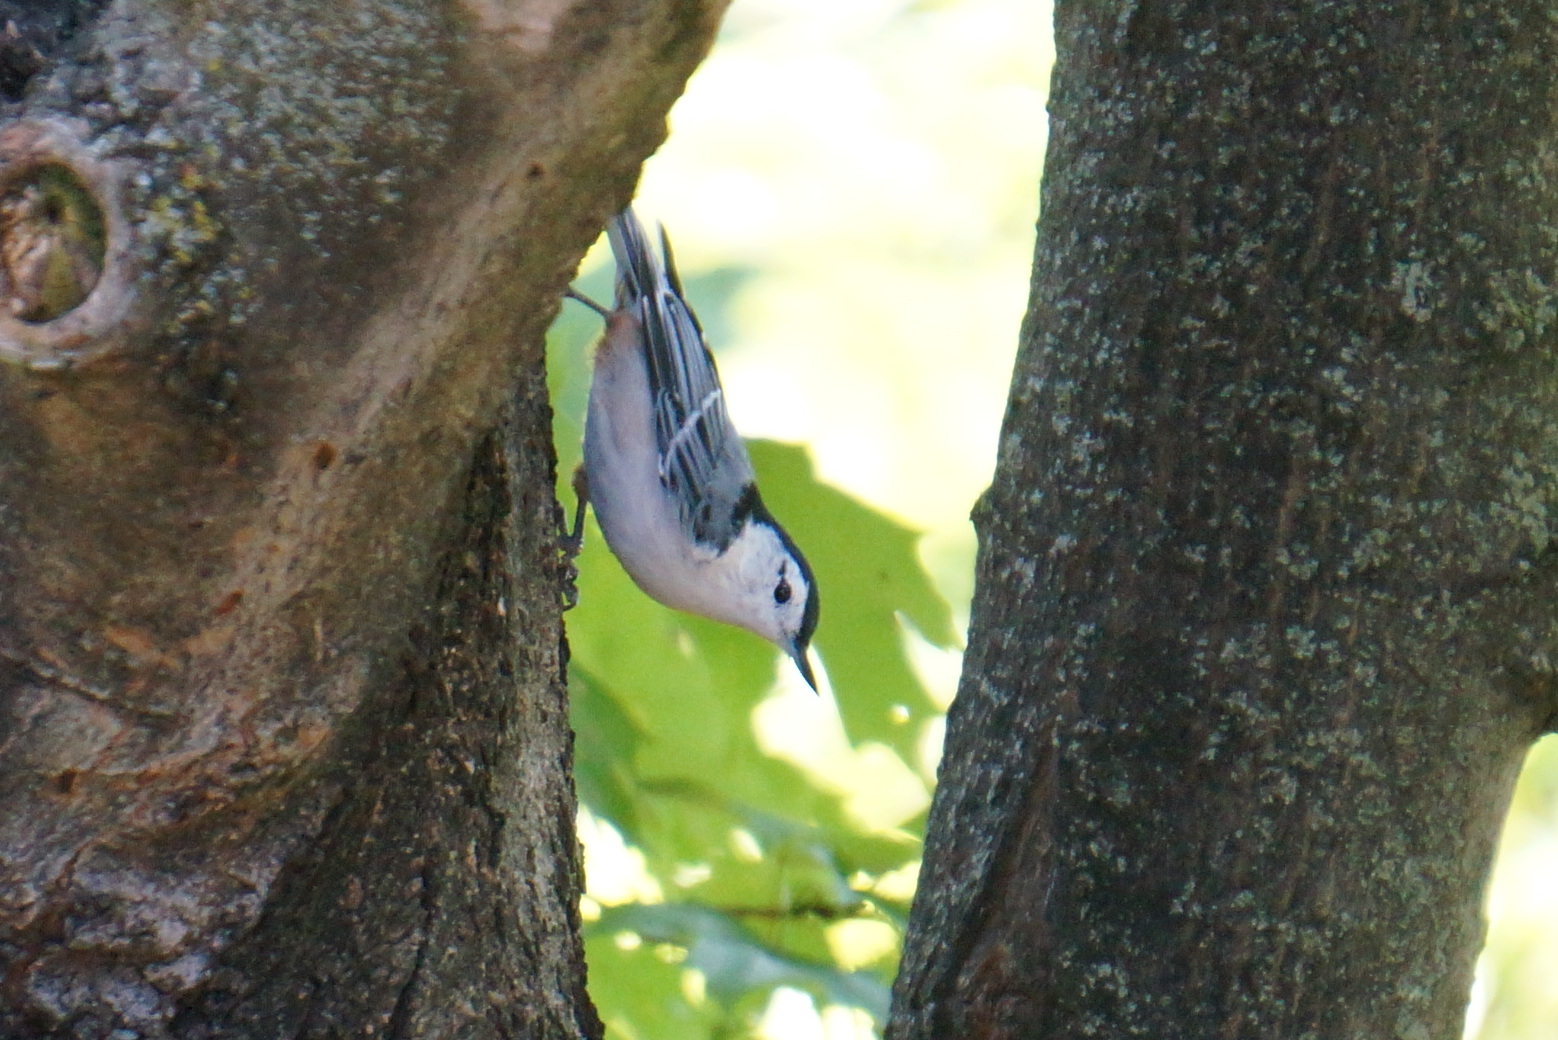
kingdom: Animalia
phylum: Chordata
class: Aves
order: Passeriformes
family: Sittidae
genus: Sitta
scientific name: Sitta carolinensis
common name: White-breasted nuthatch
